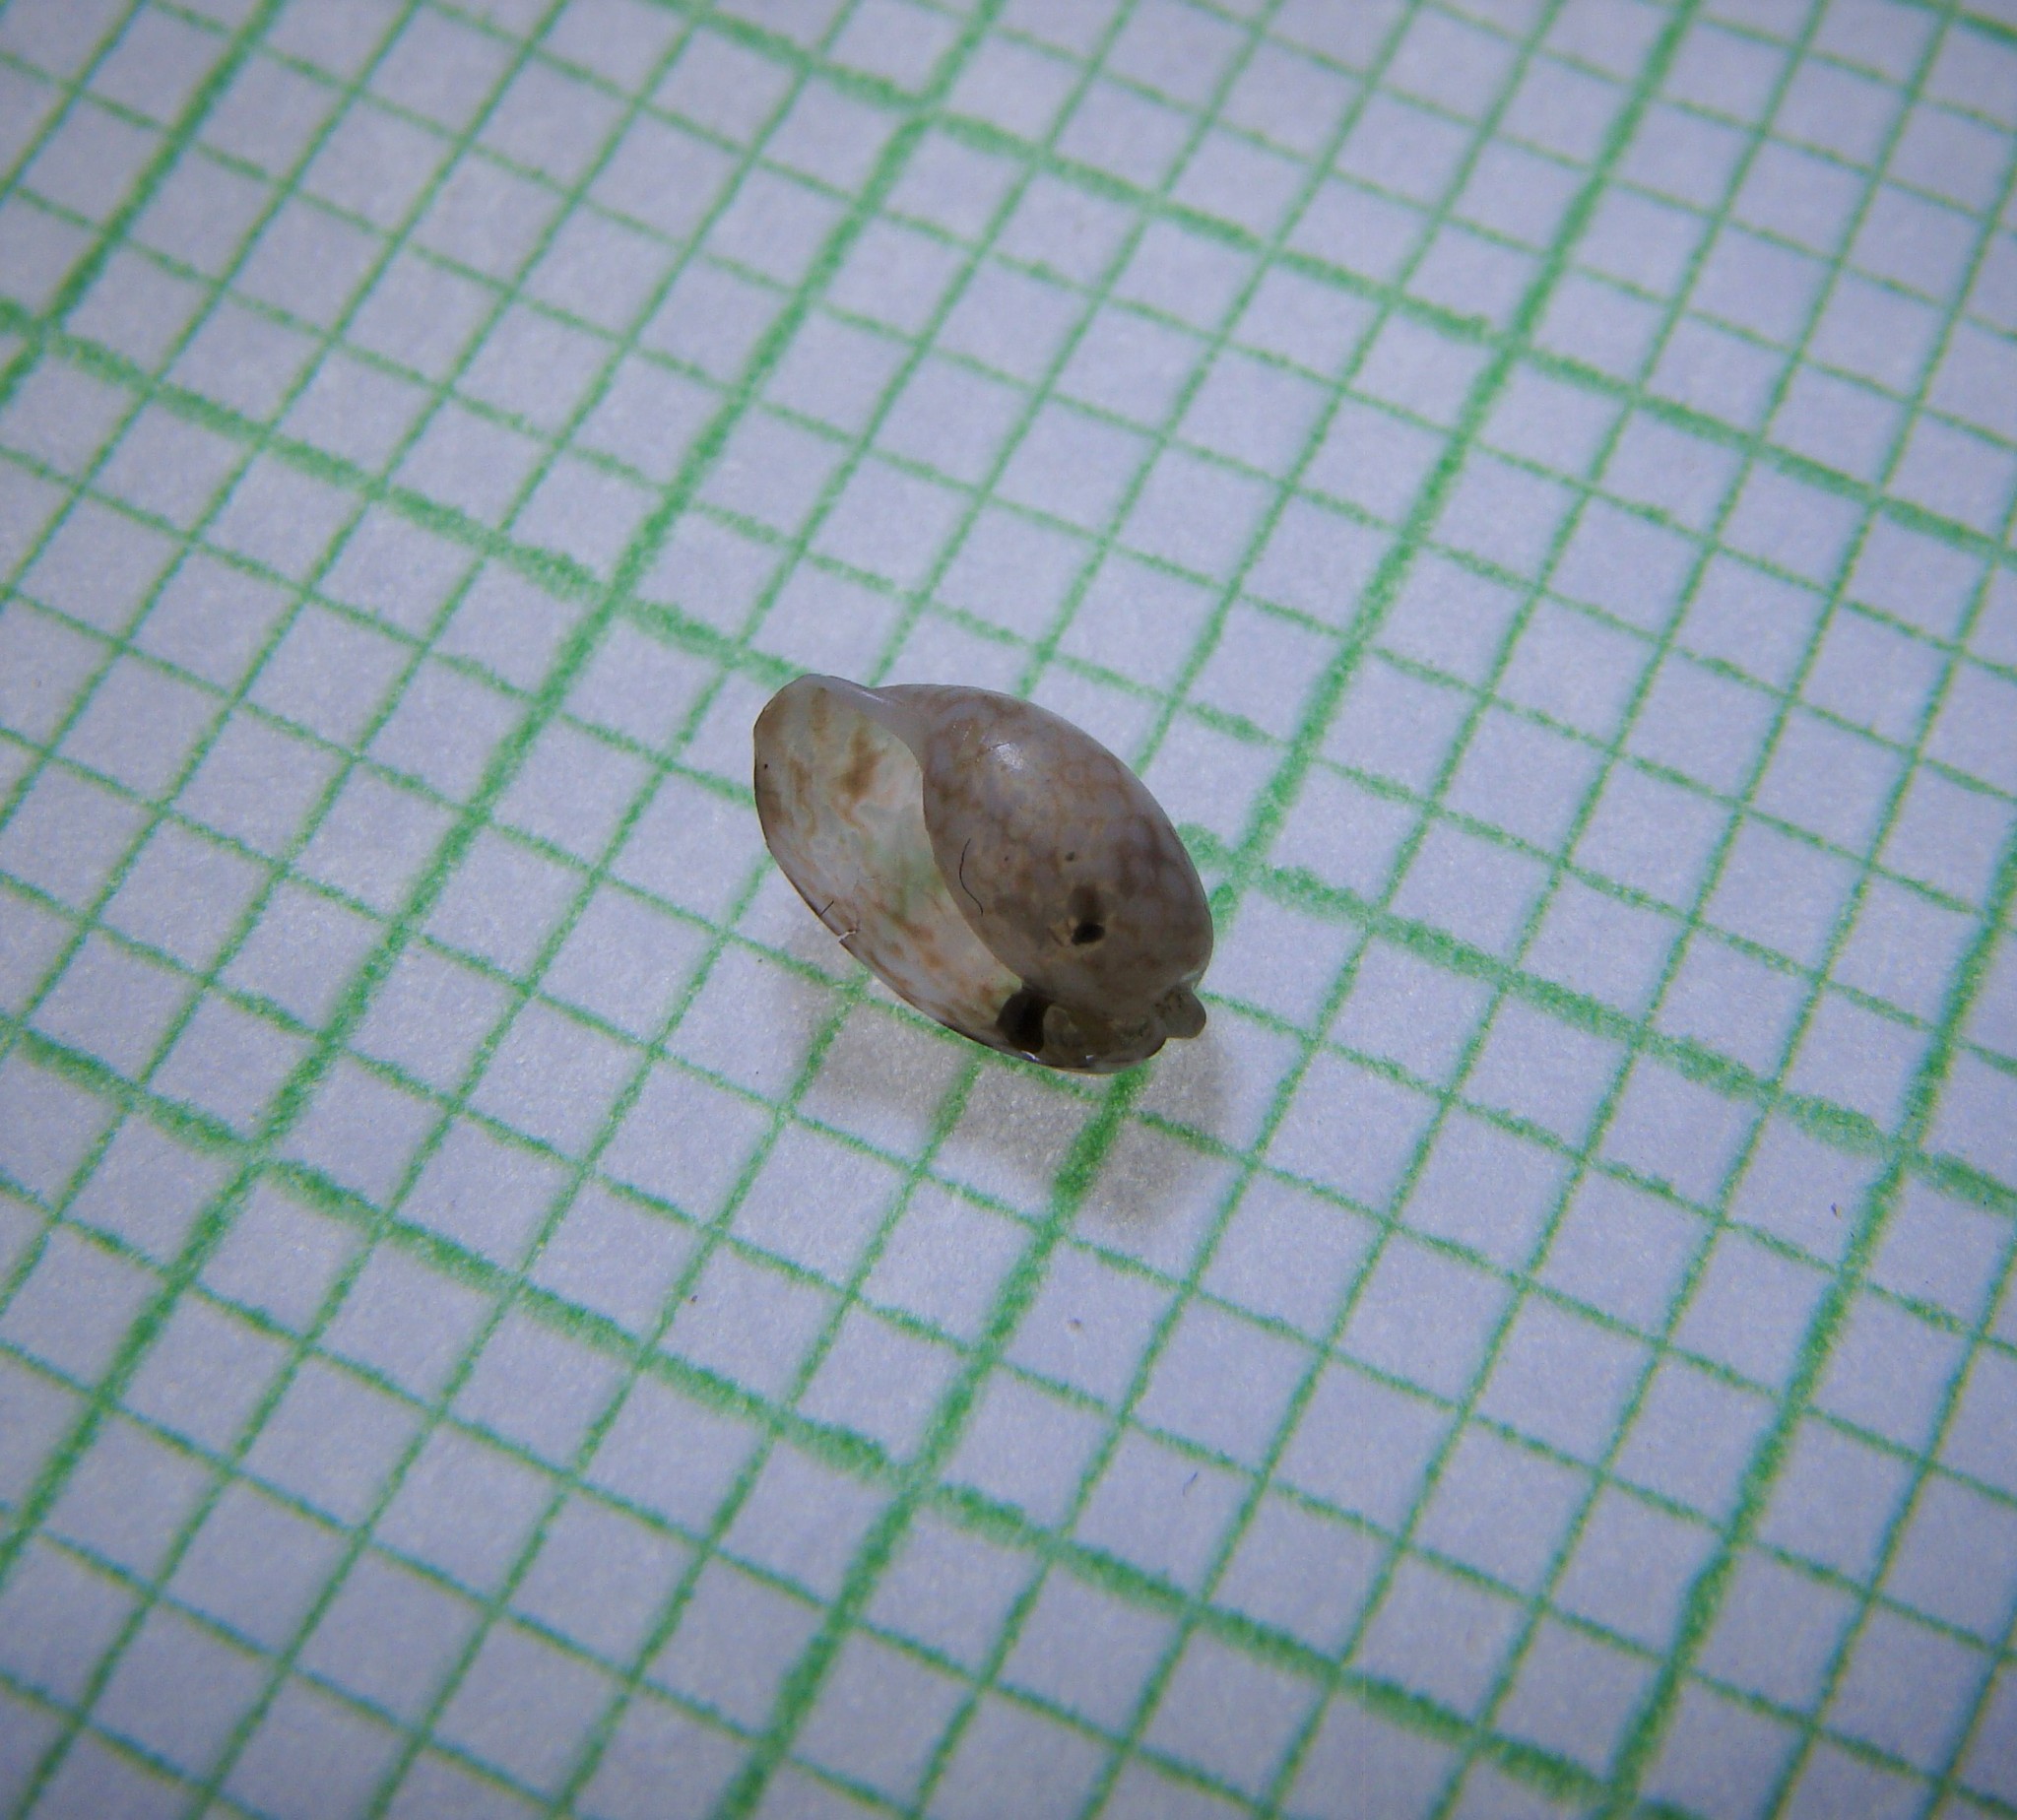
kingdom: Animalia
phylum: Mollusca
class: Gastropoda
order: Cephalaspidea
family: Bullidae
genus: Bulla
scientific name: Bulla quoyii
